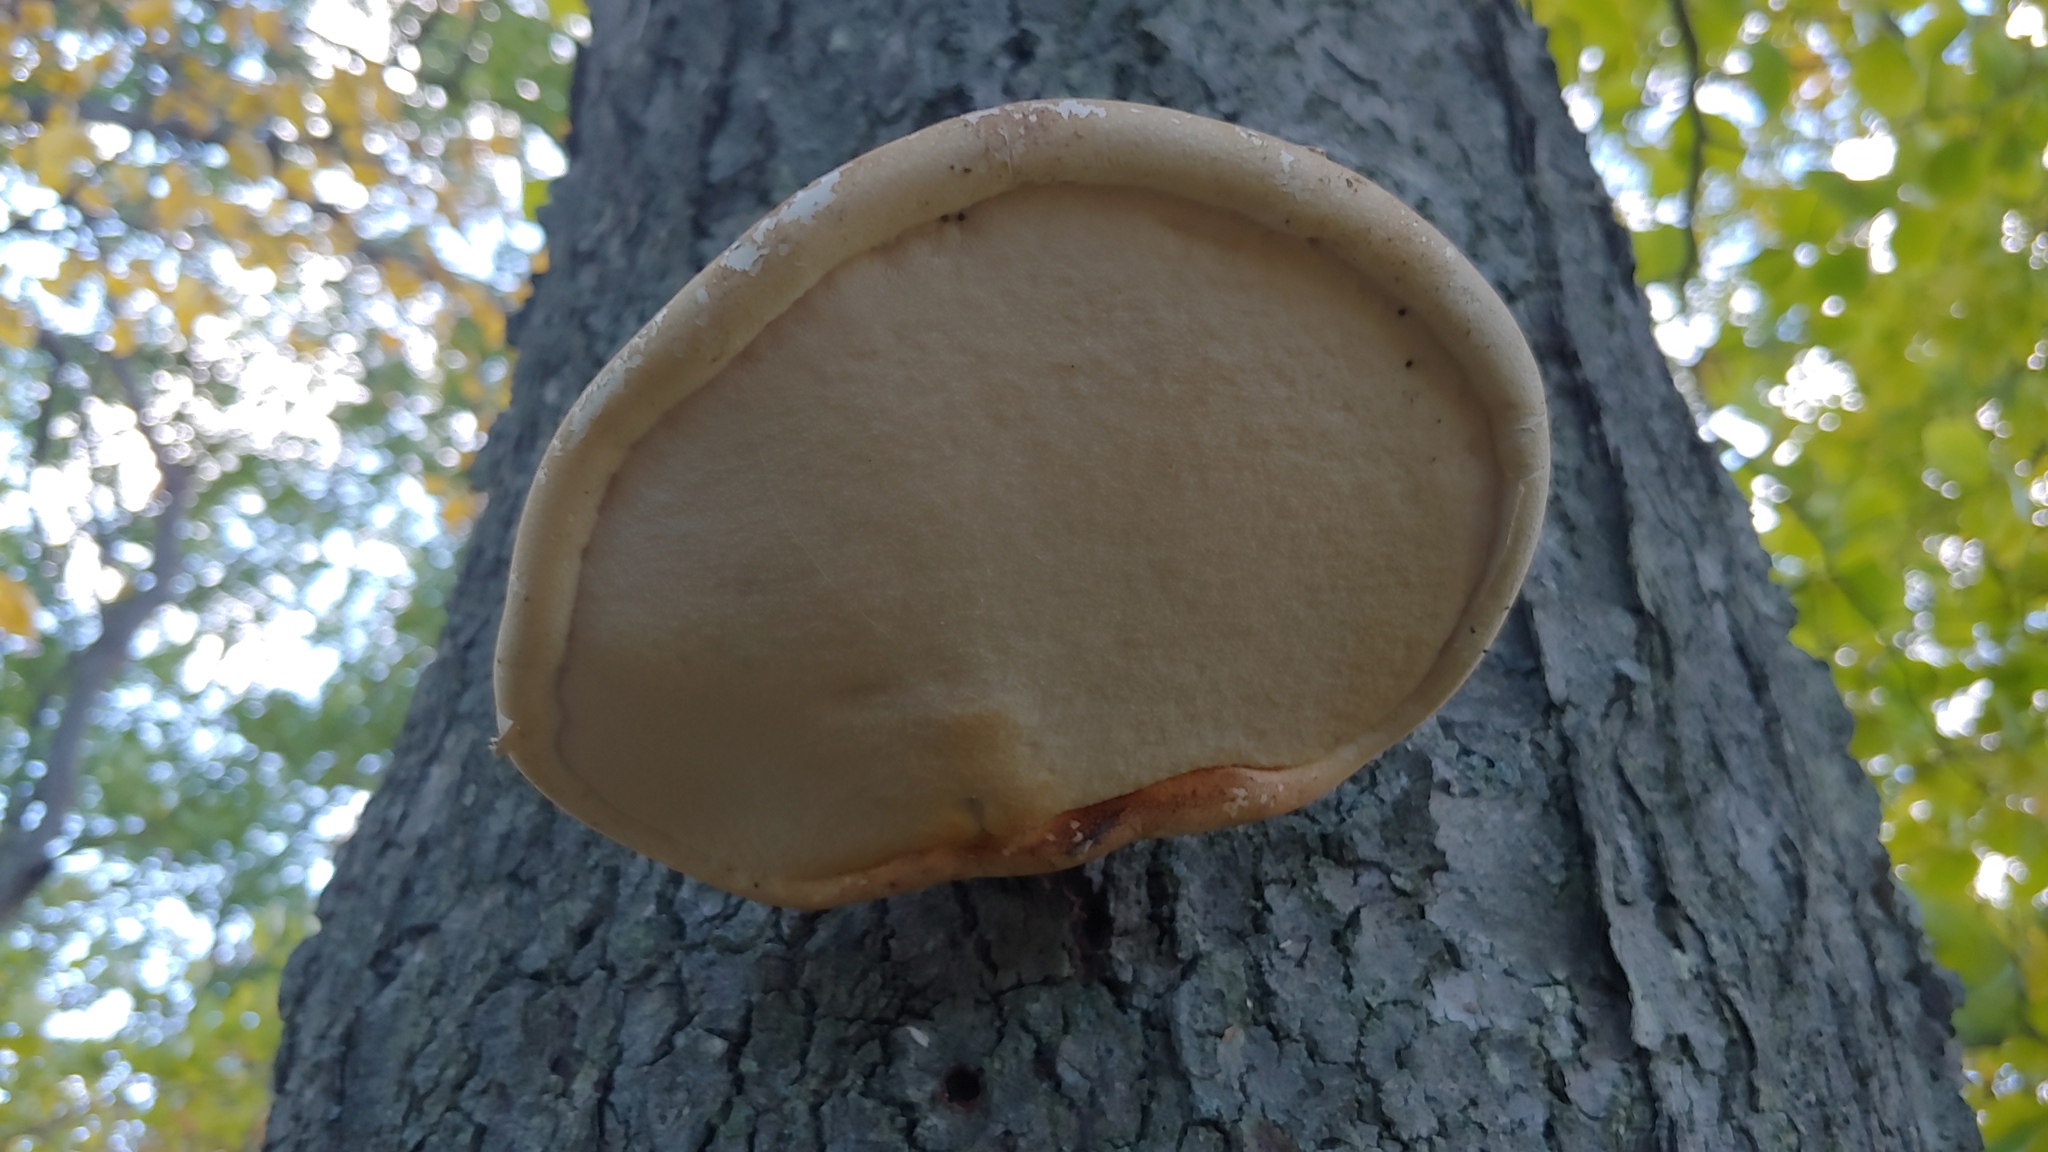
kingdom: Fungi
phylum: Basidiomycota
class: Agaricomycetes
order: Polyporales
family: Fomitopsidaceae
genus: Fomitopsis
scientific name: Fomitopsis betulina
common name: Birch polypore
